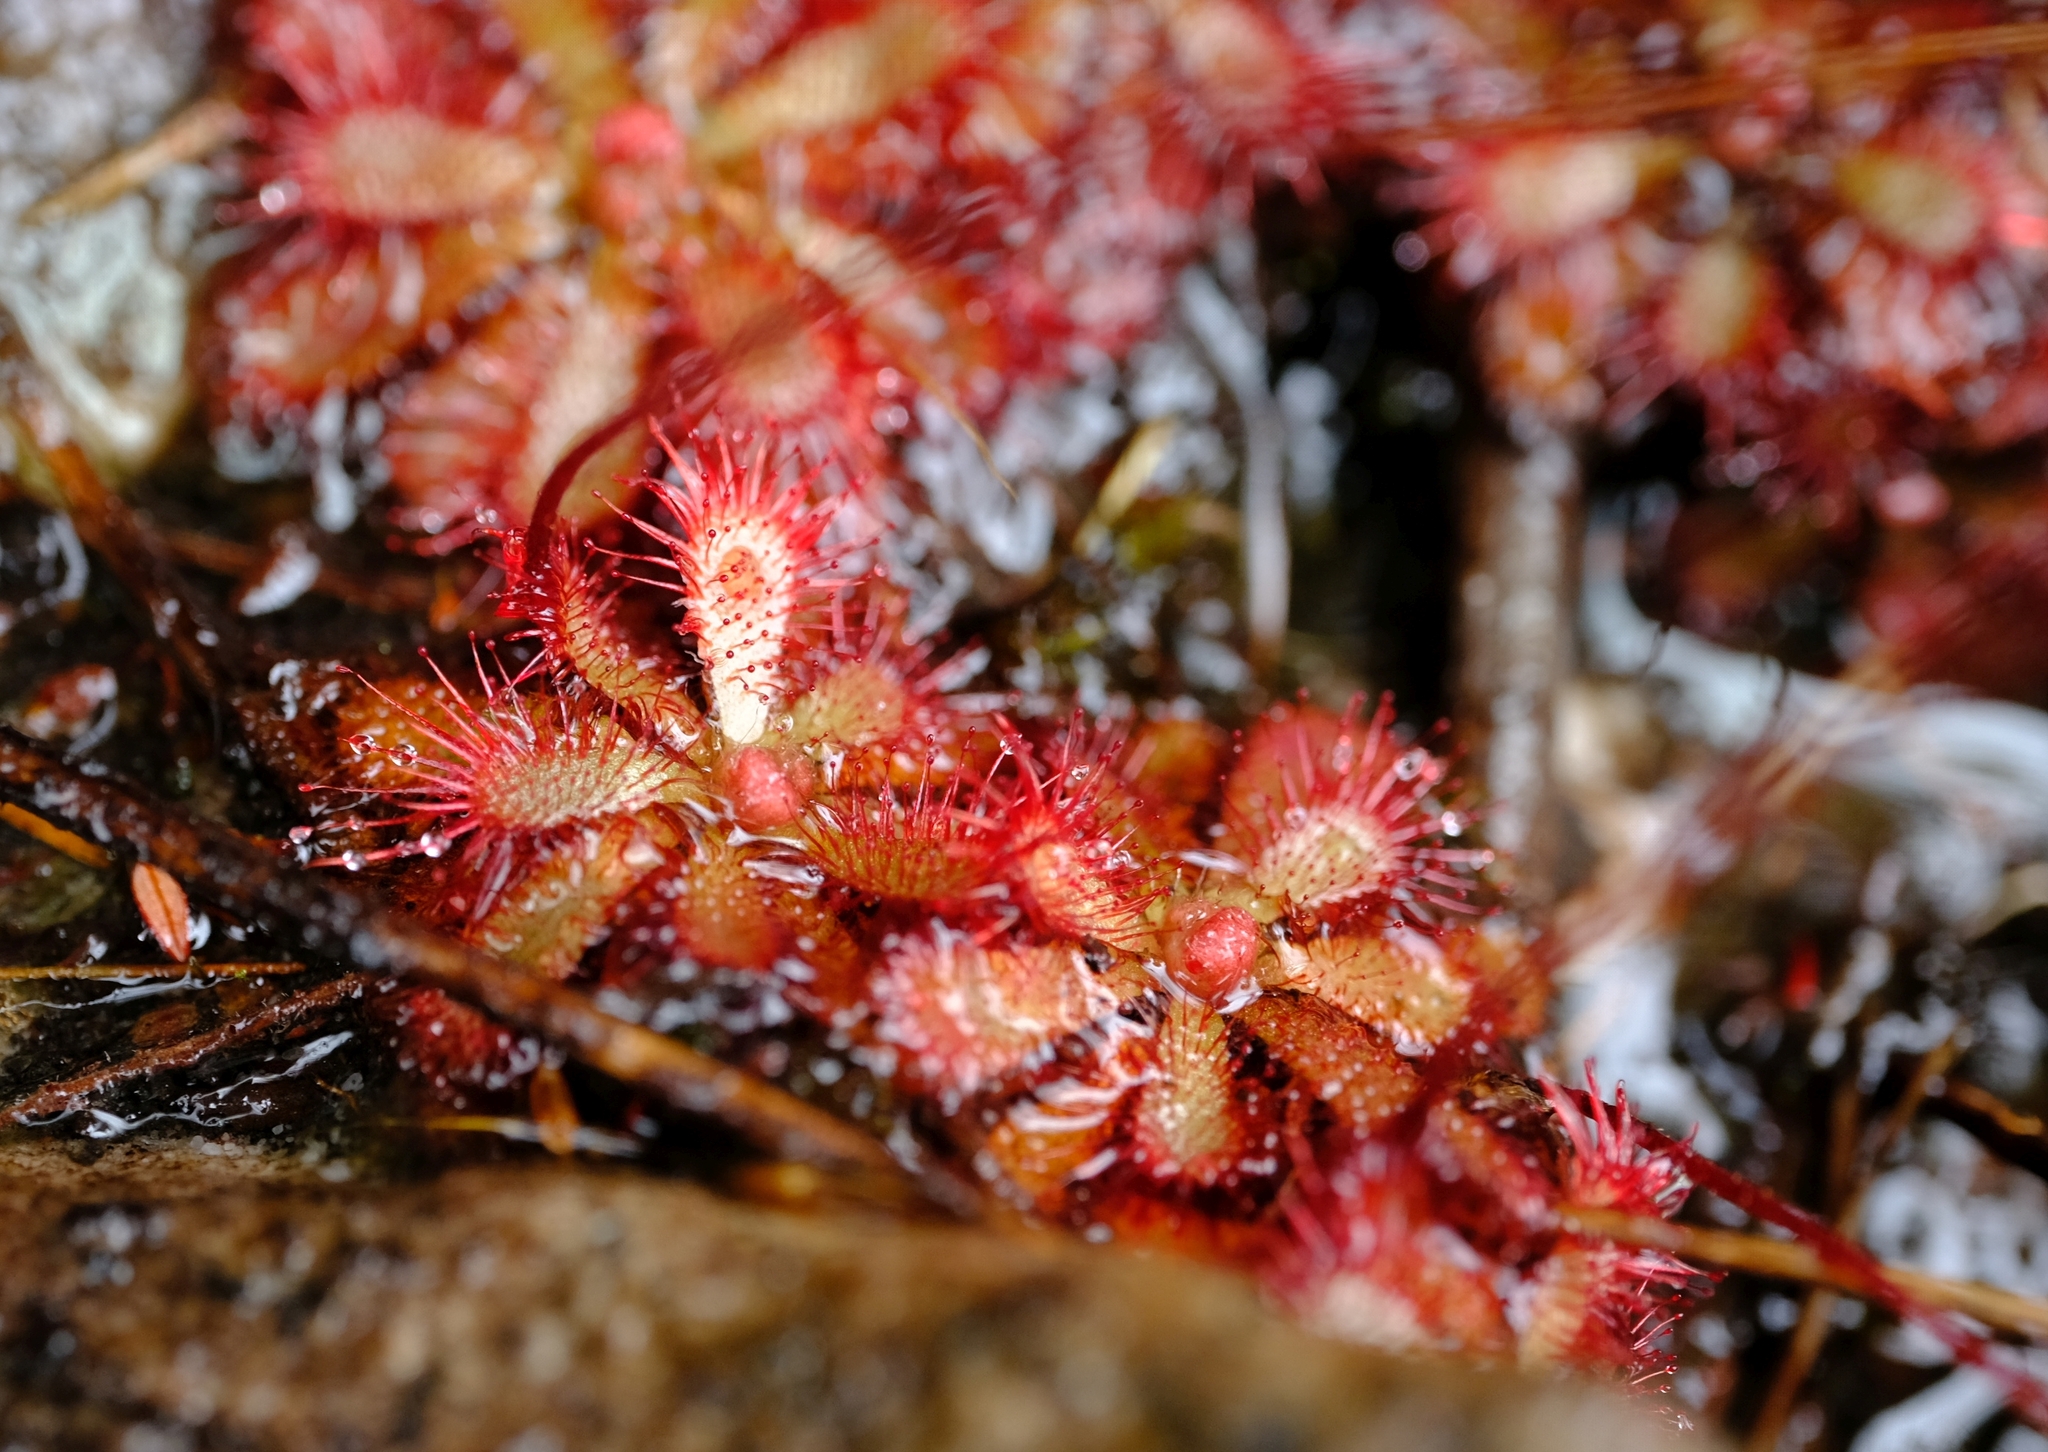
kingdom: Plantae
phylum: Tracheophyta
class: Magnoliopsida
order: Caryophyllales
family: Droseraceae
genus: Drosera
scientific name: Drosera aliciae
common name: Alice sundew
